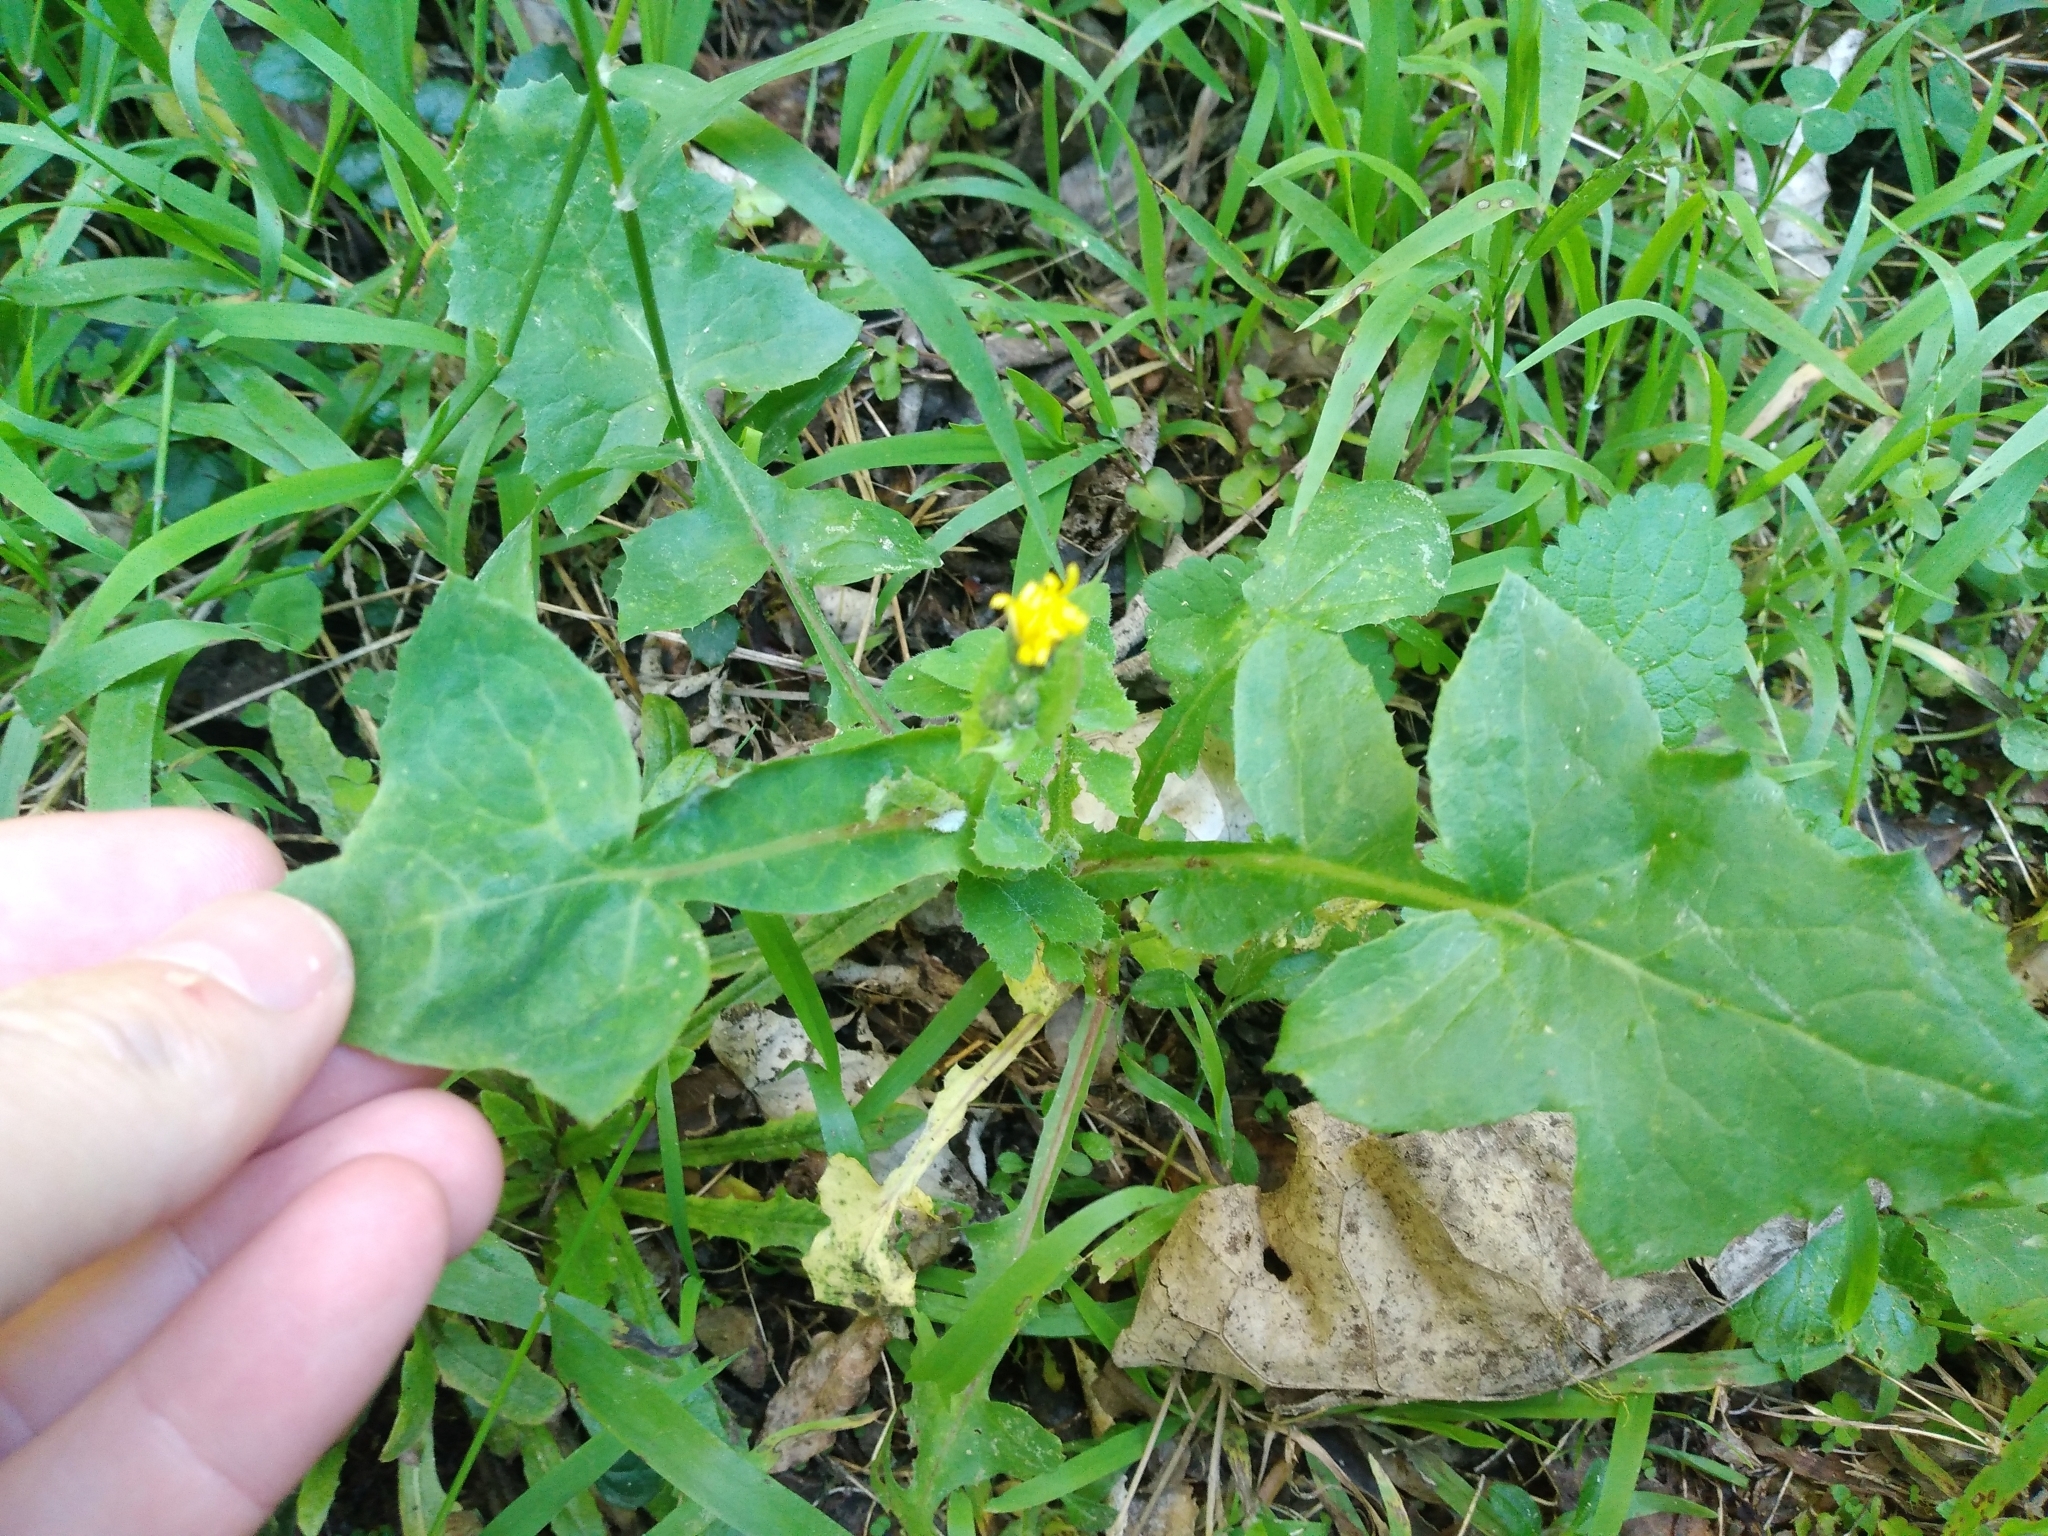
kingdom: Plantae
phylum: Tracheophyta
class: Magnoliopsida
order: Asterales
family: Asteraceae
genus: Sonchus
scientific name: Sonchus oleraceus
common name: Common sowthistle
